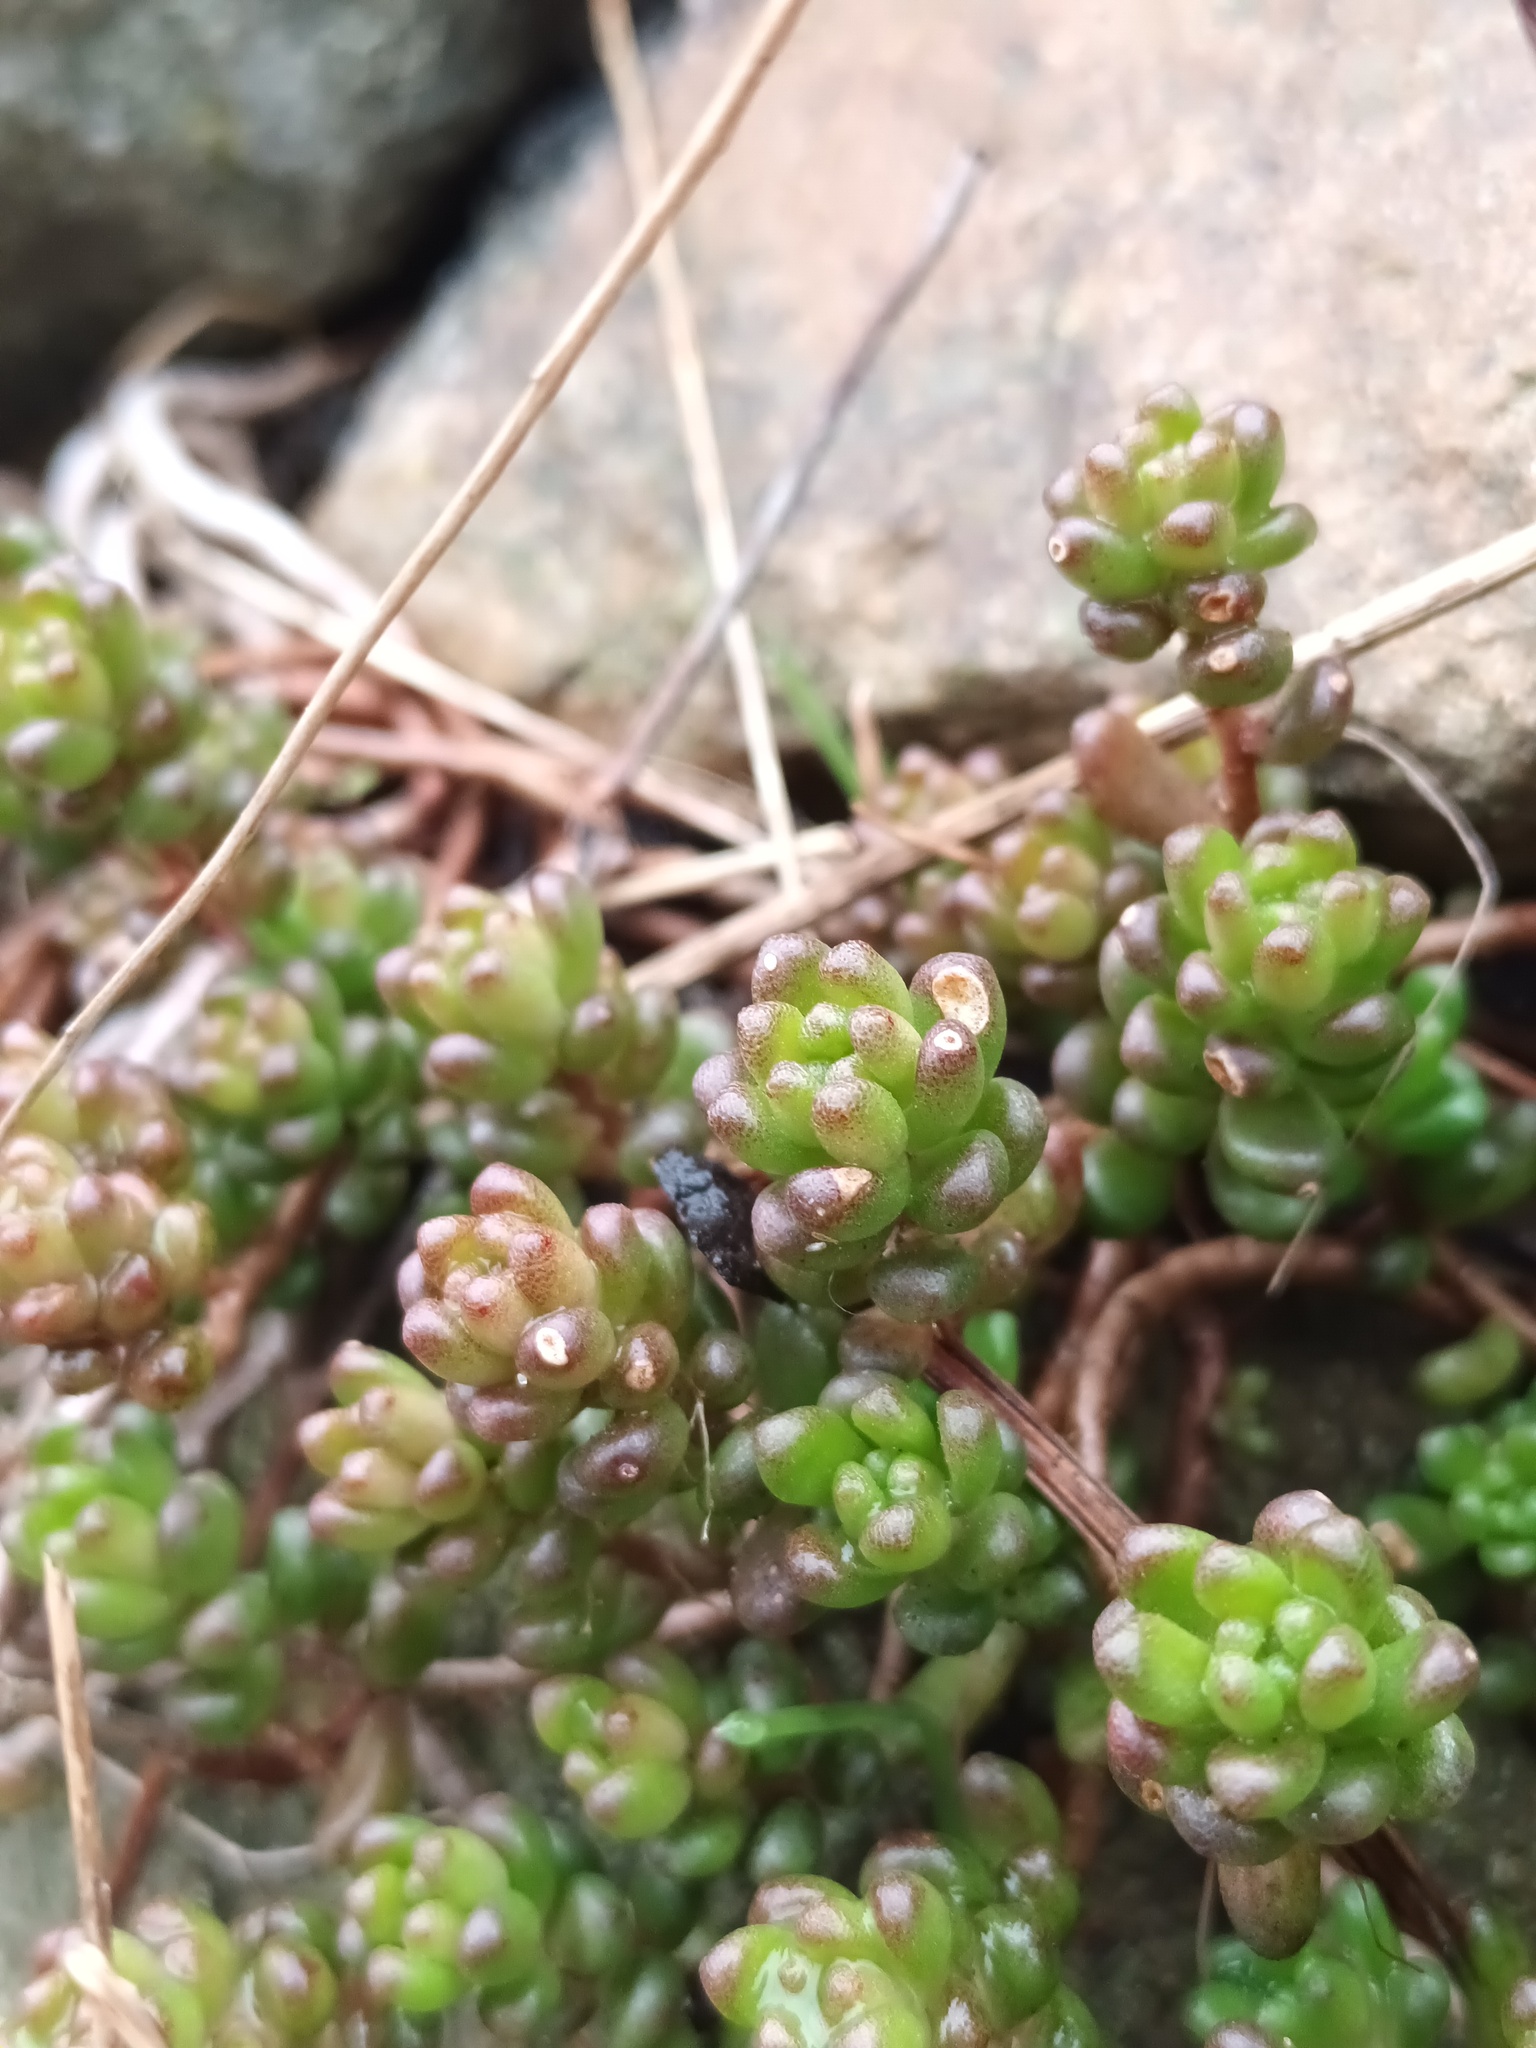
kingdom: Plantae
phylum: Tracheophyta
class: Magnoliopsida
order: Saxifragales
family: Crassulaceae
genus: Sedum
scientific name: Sedum album
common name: White stonecrop
